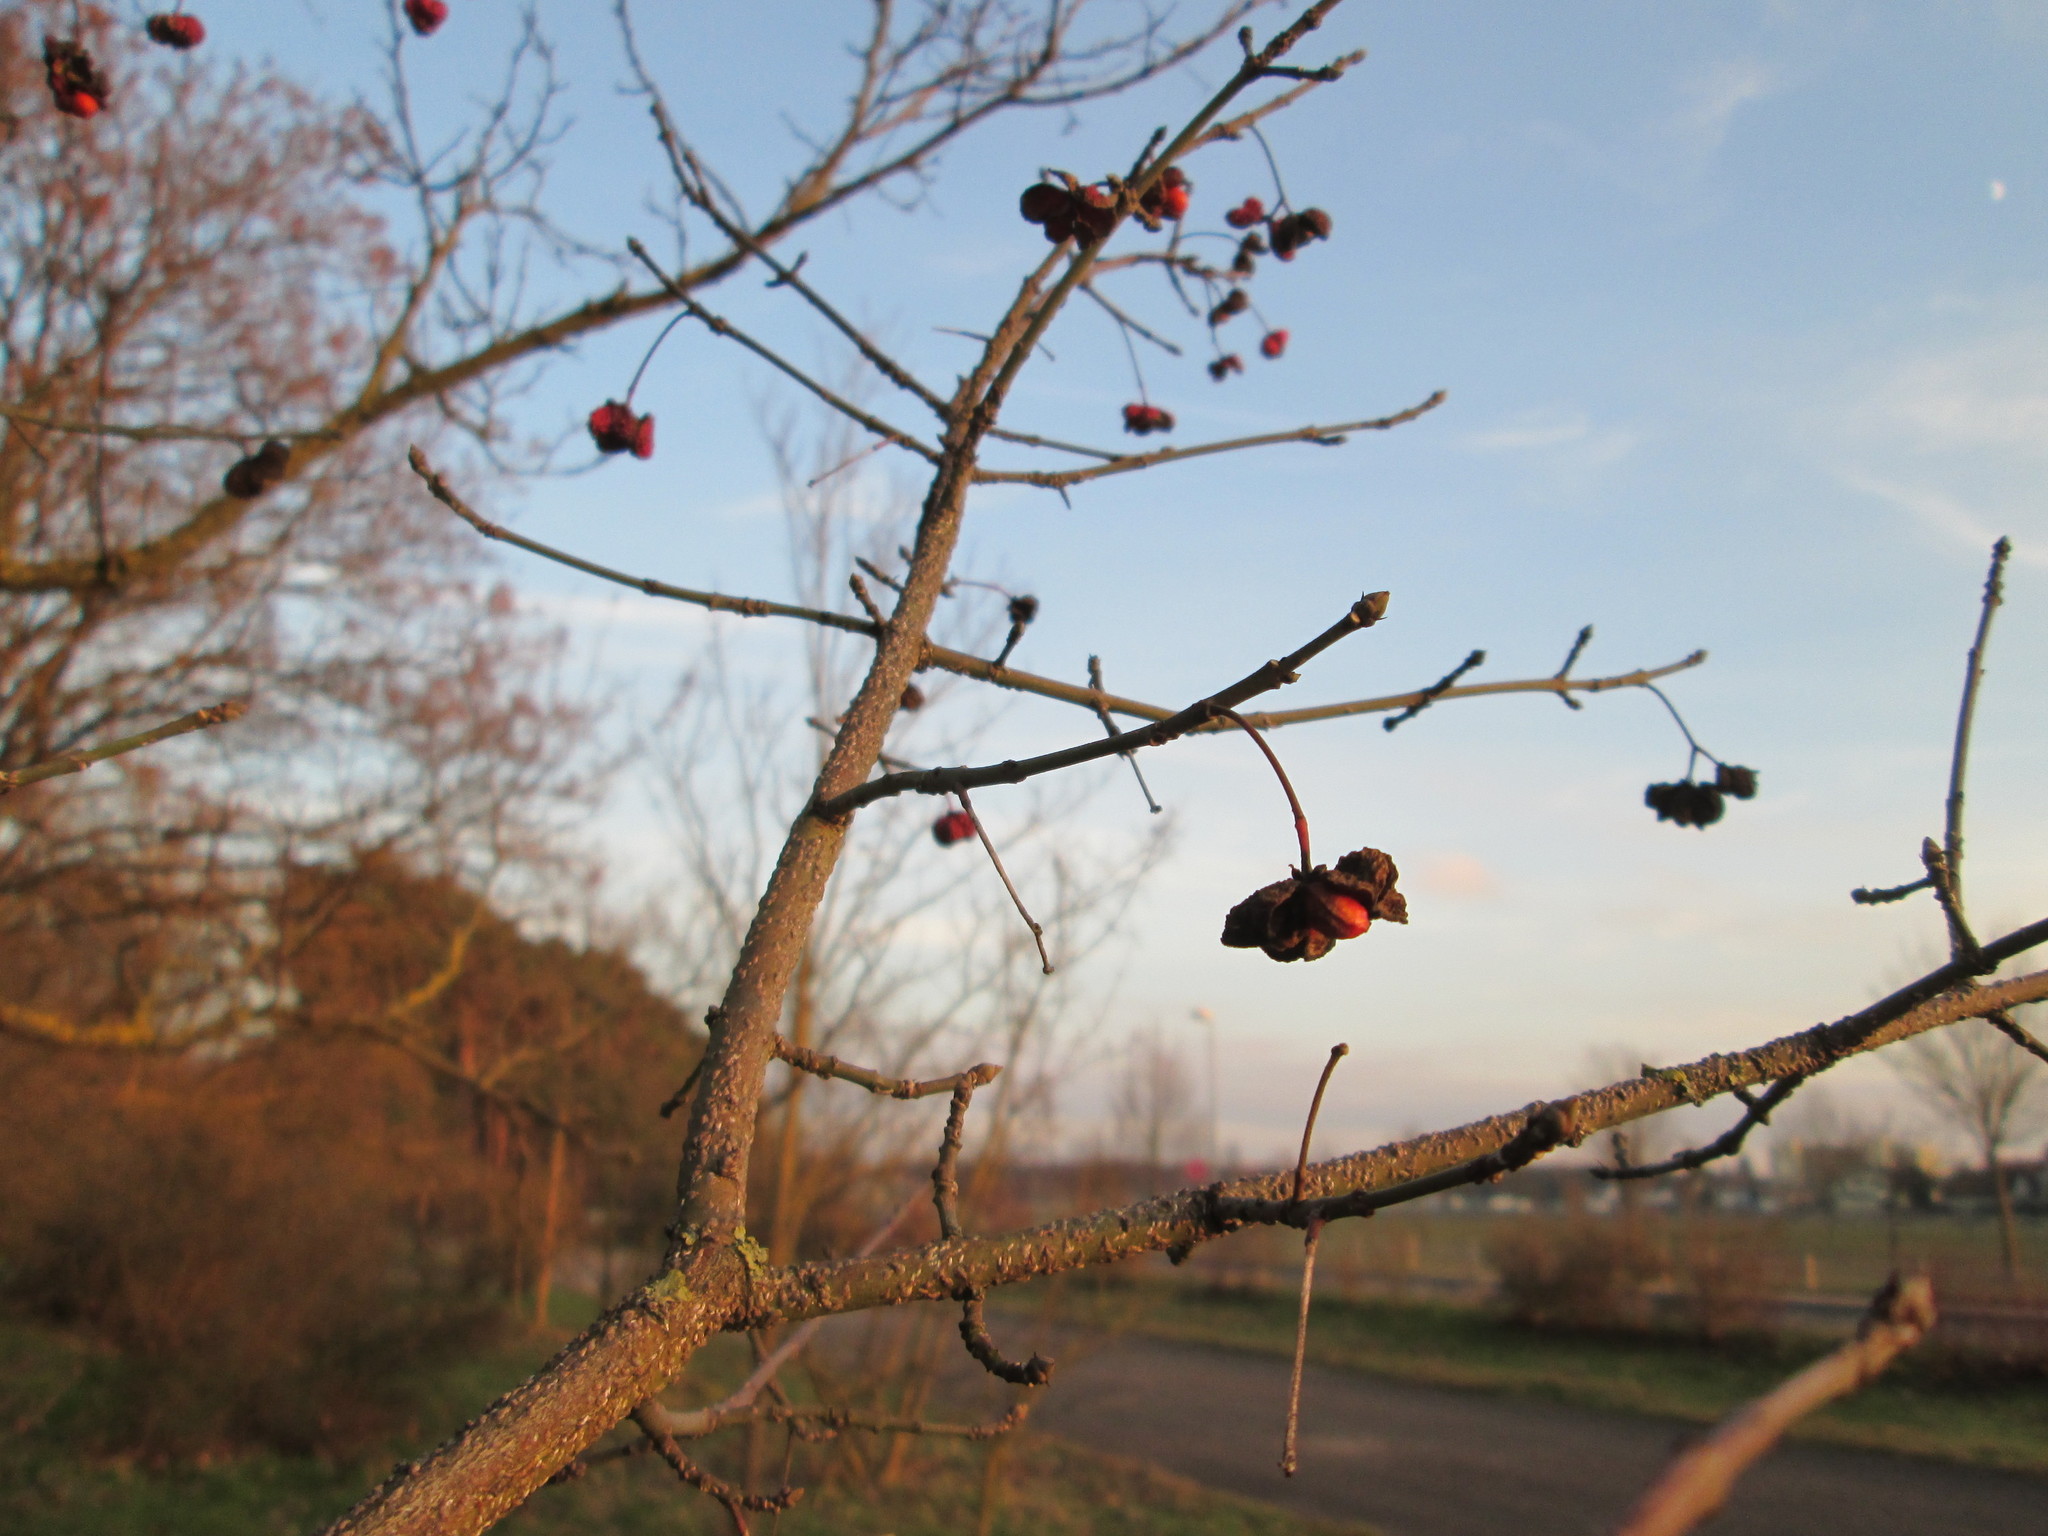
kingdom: Plantae
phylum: Tracheophyta
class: Magnoliopsida
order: Celastrales
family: Celastraceae
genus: Euonymus
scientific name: Euonymus europaeus
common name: Spindle
